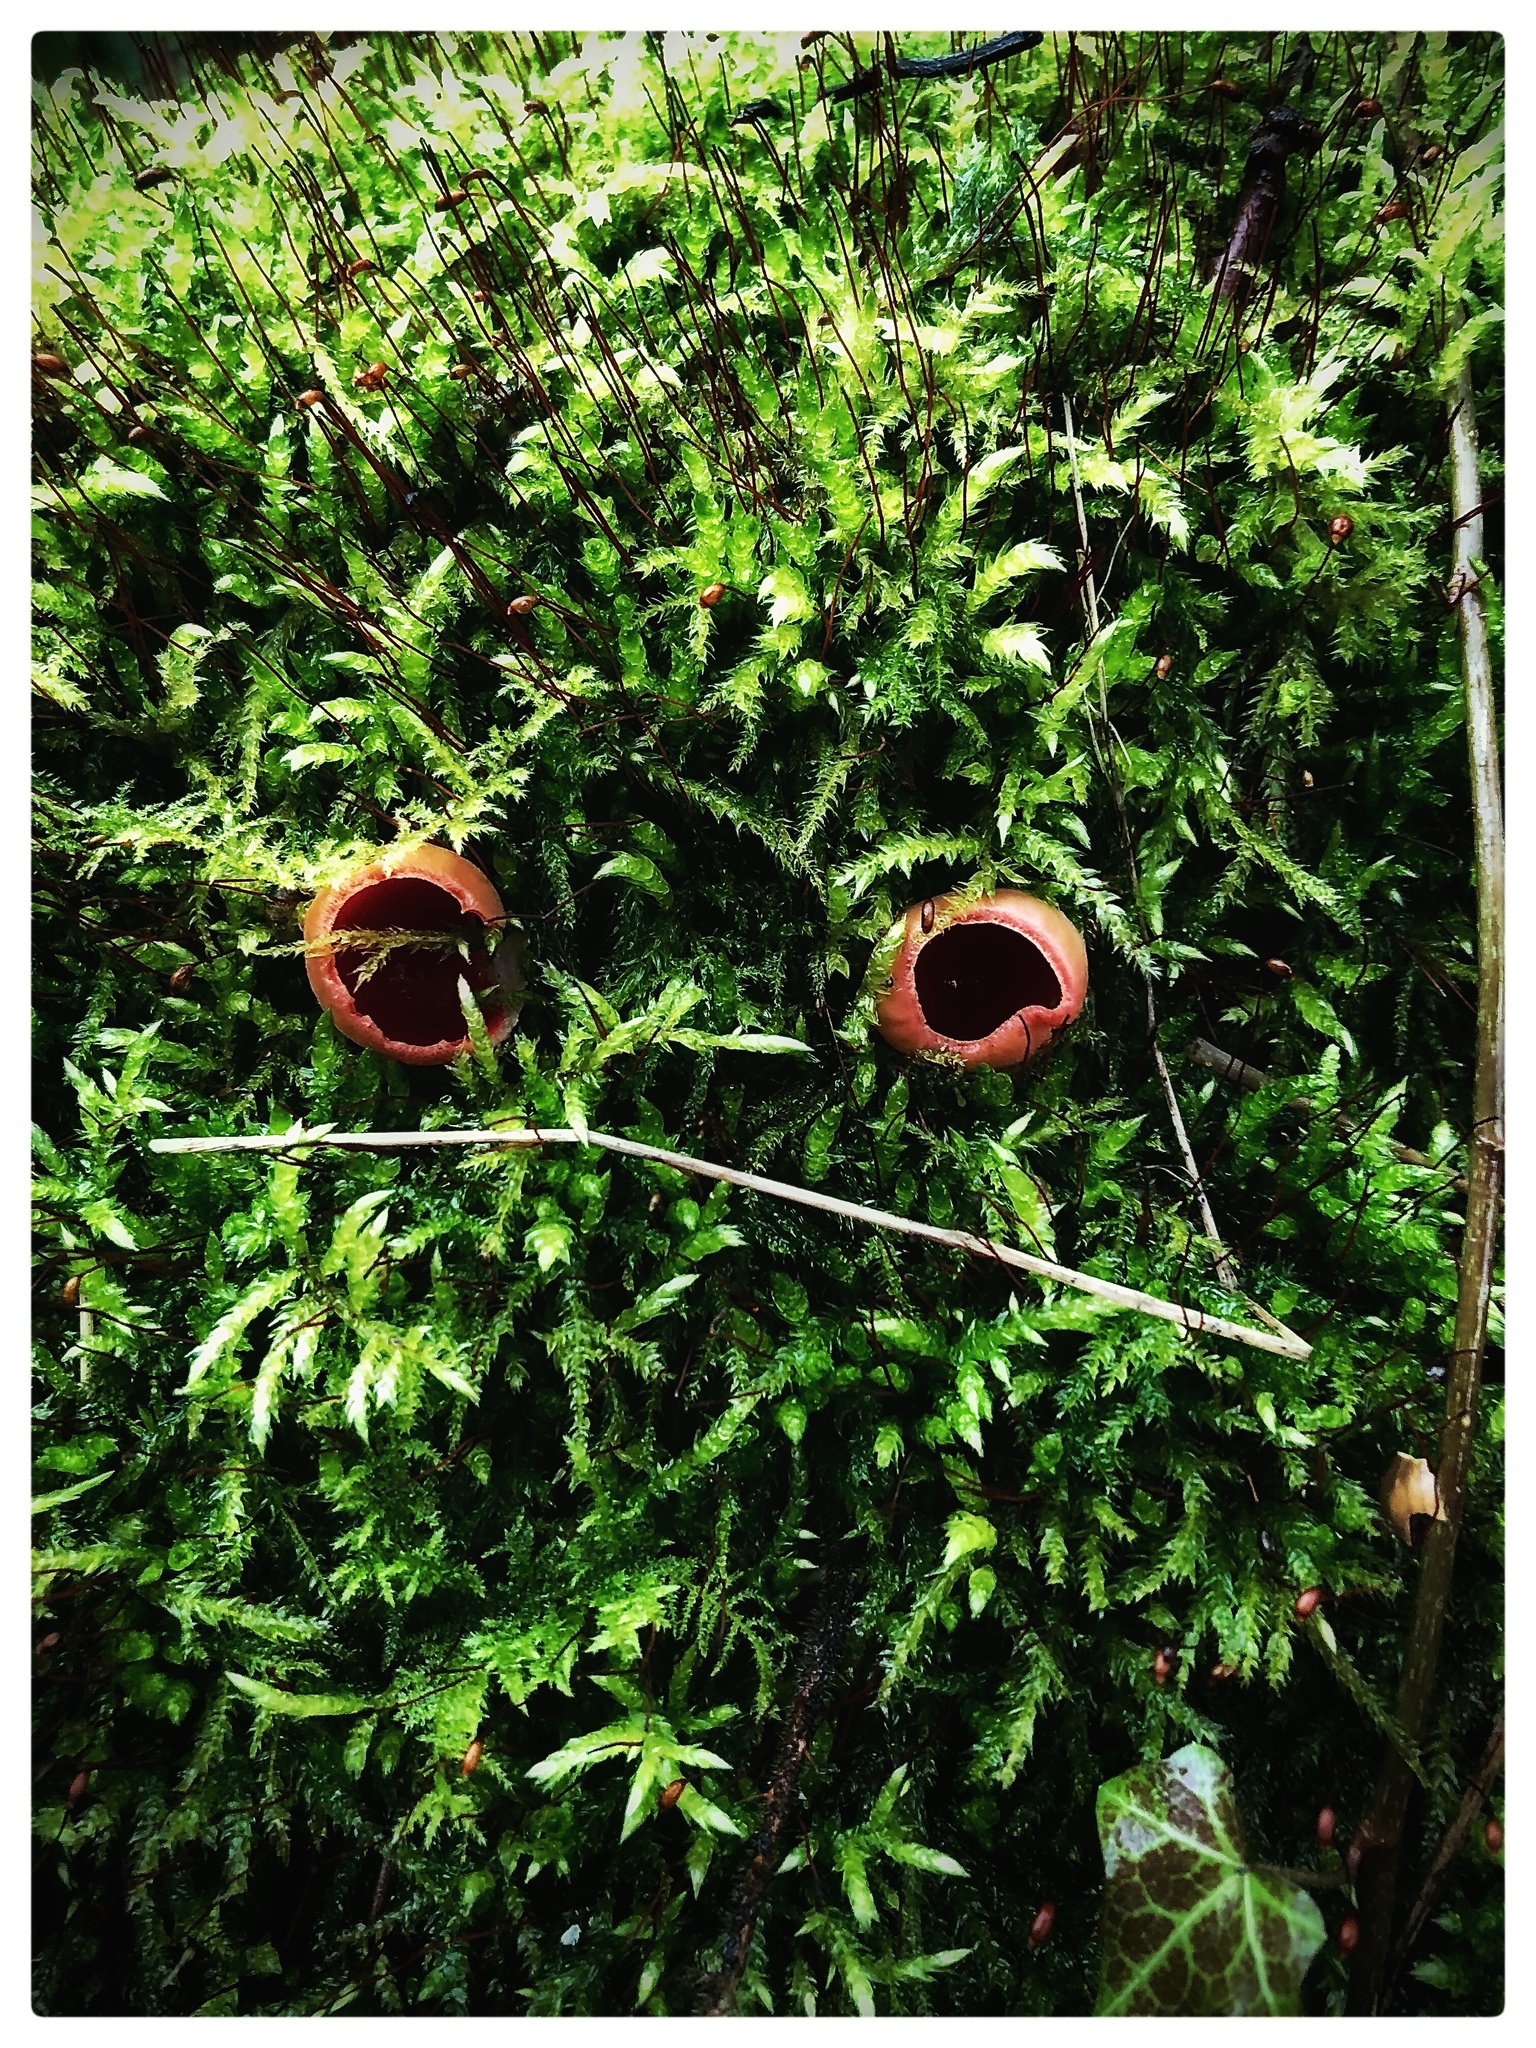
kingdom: Fungi
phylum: Ascomycota
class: Pezizomycetes
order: Pezizales
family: Sarcoscyphaceae
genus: Sarcoscypha
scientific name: Sarcoscypha
